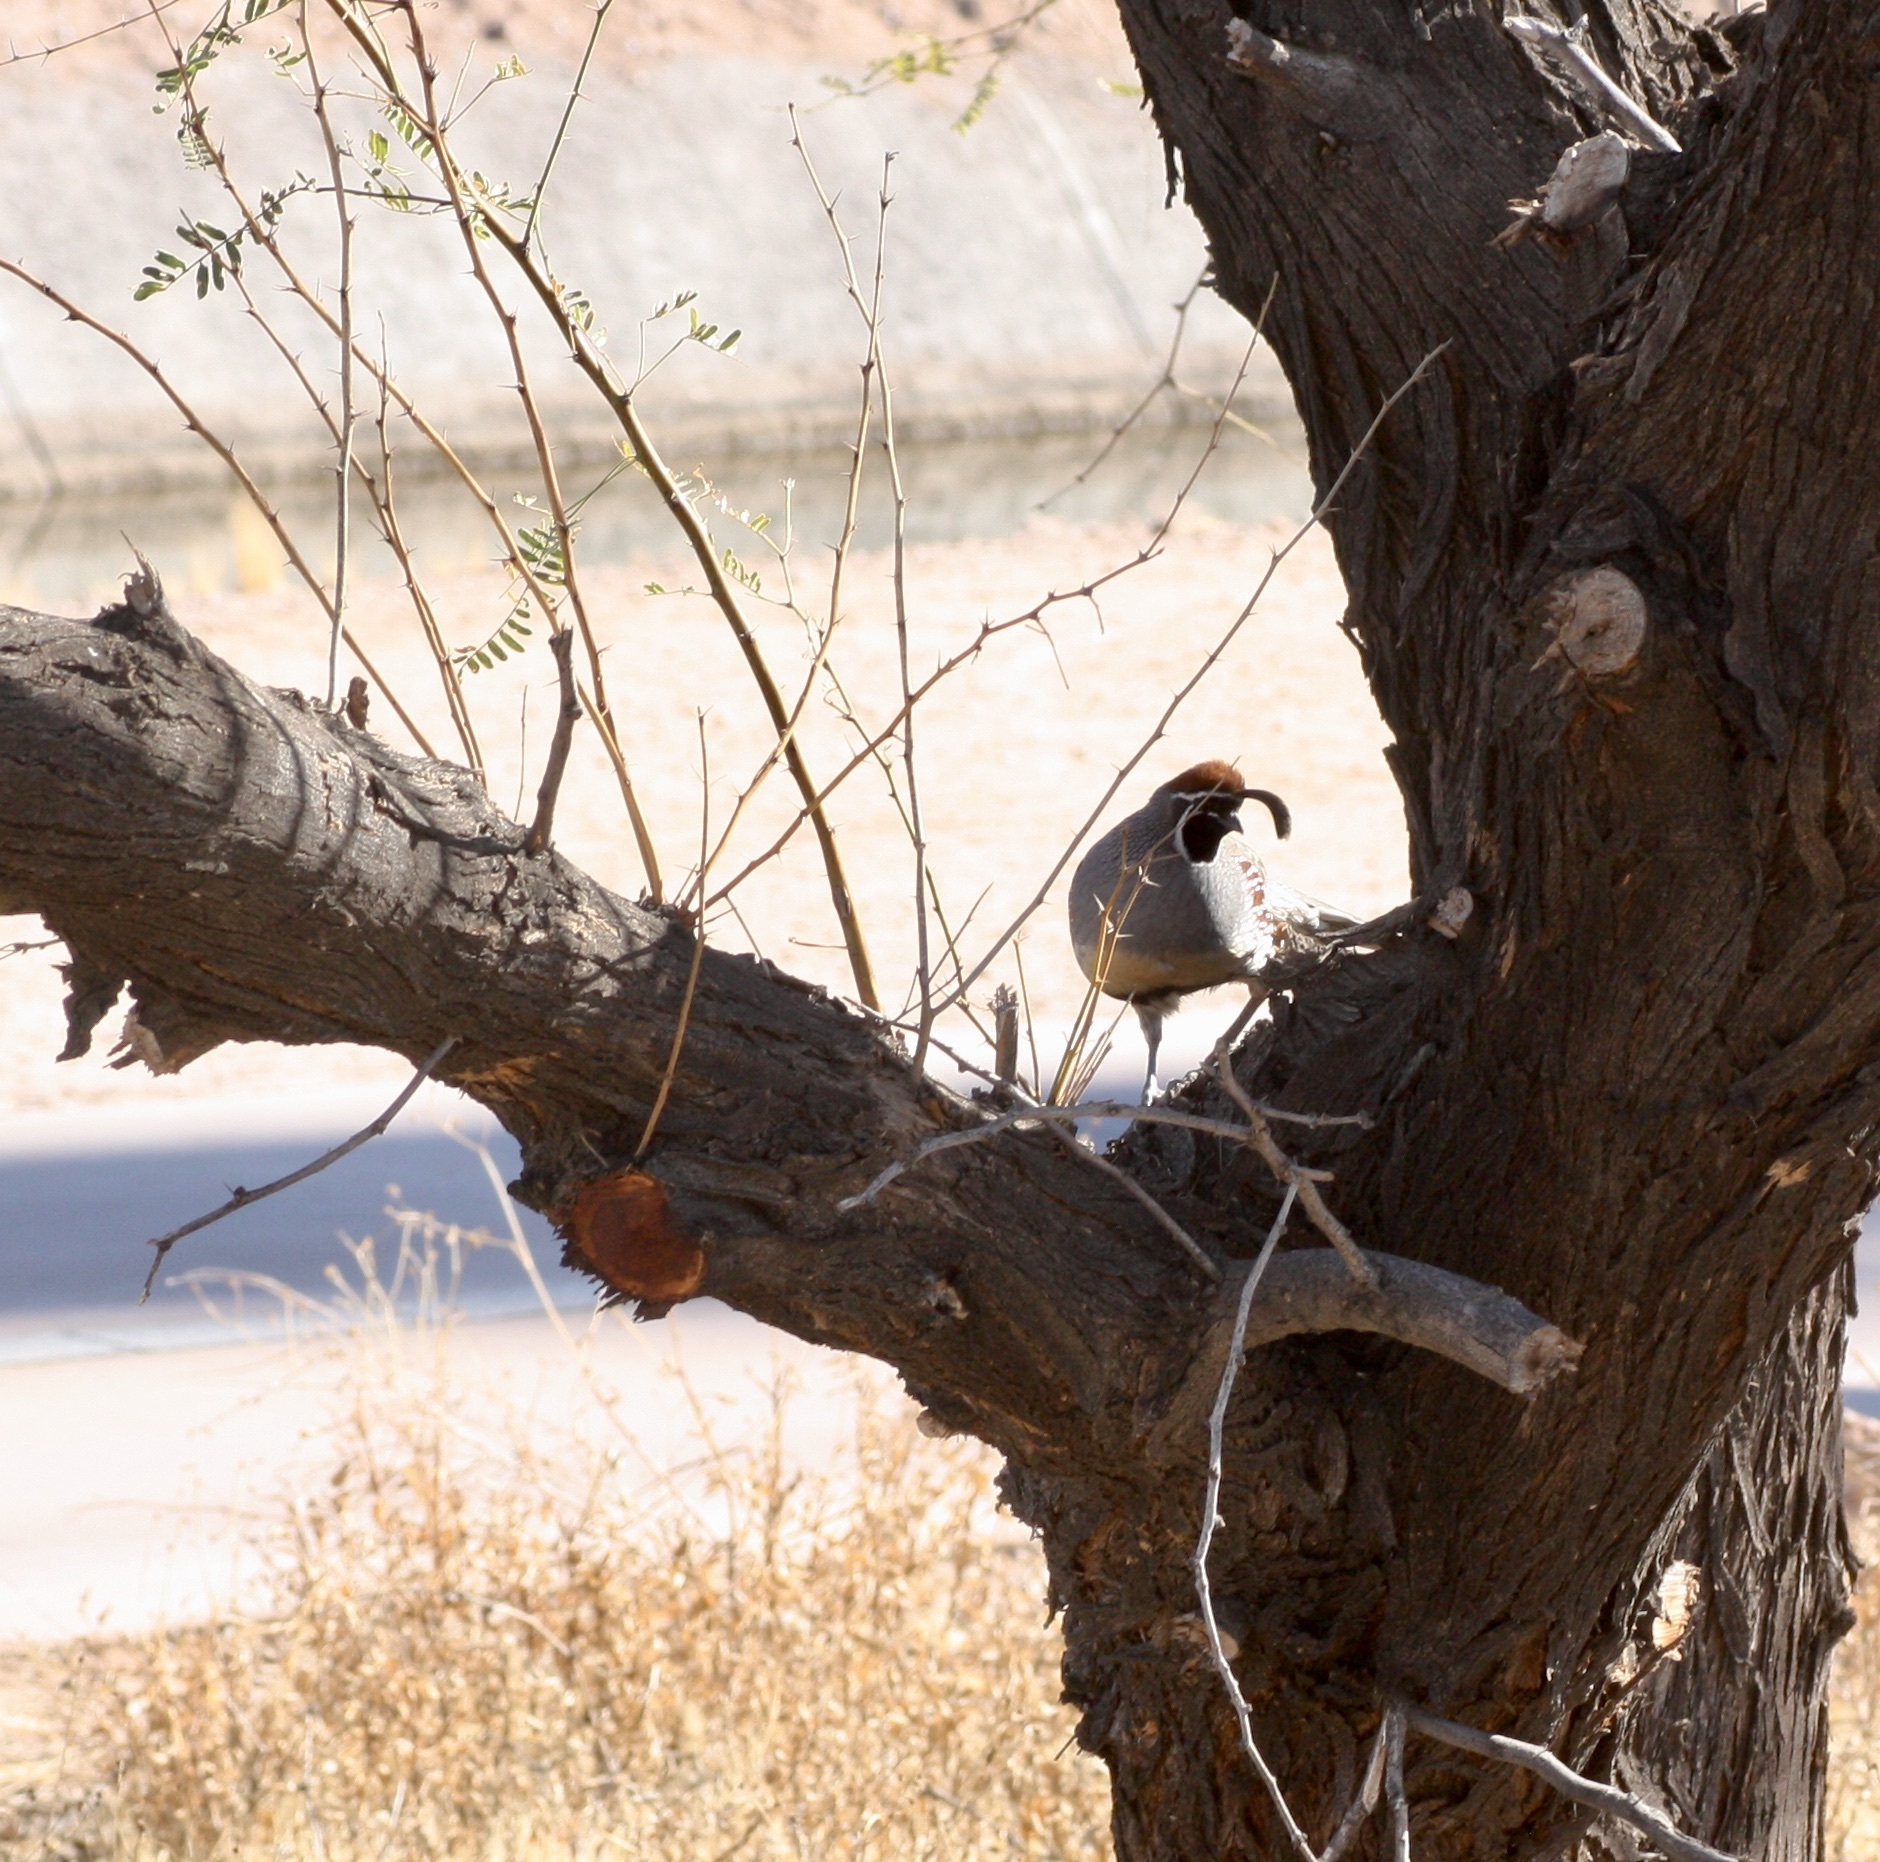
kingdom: Animalia
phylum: Chordata
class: Aves
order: Galliformes
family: Odontophoridae
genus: Callipepla
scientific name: Callipepla gambelii
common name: Gambel's quail
